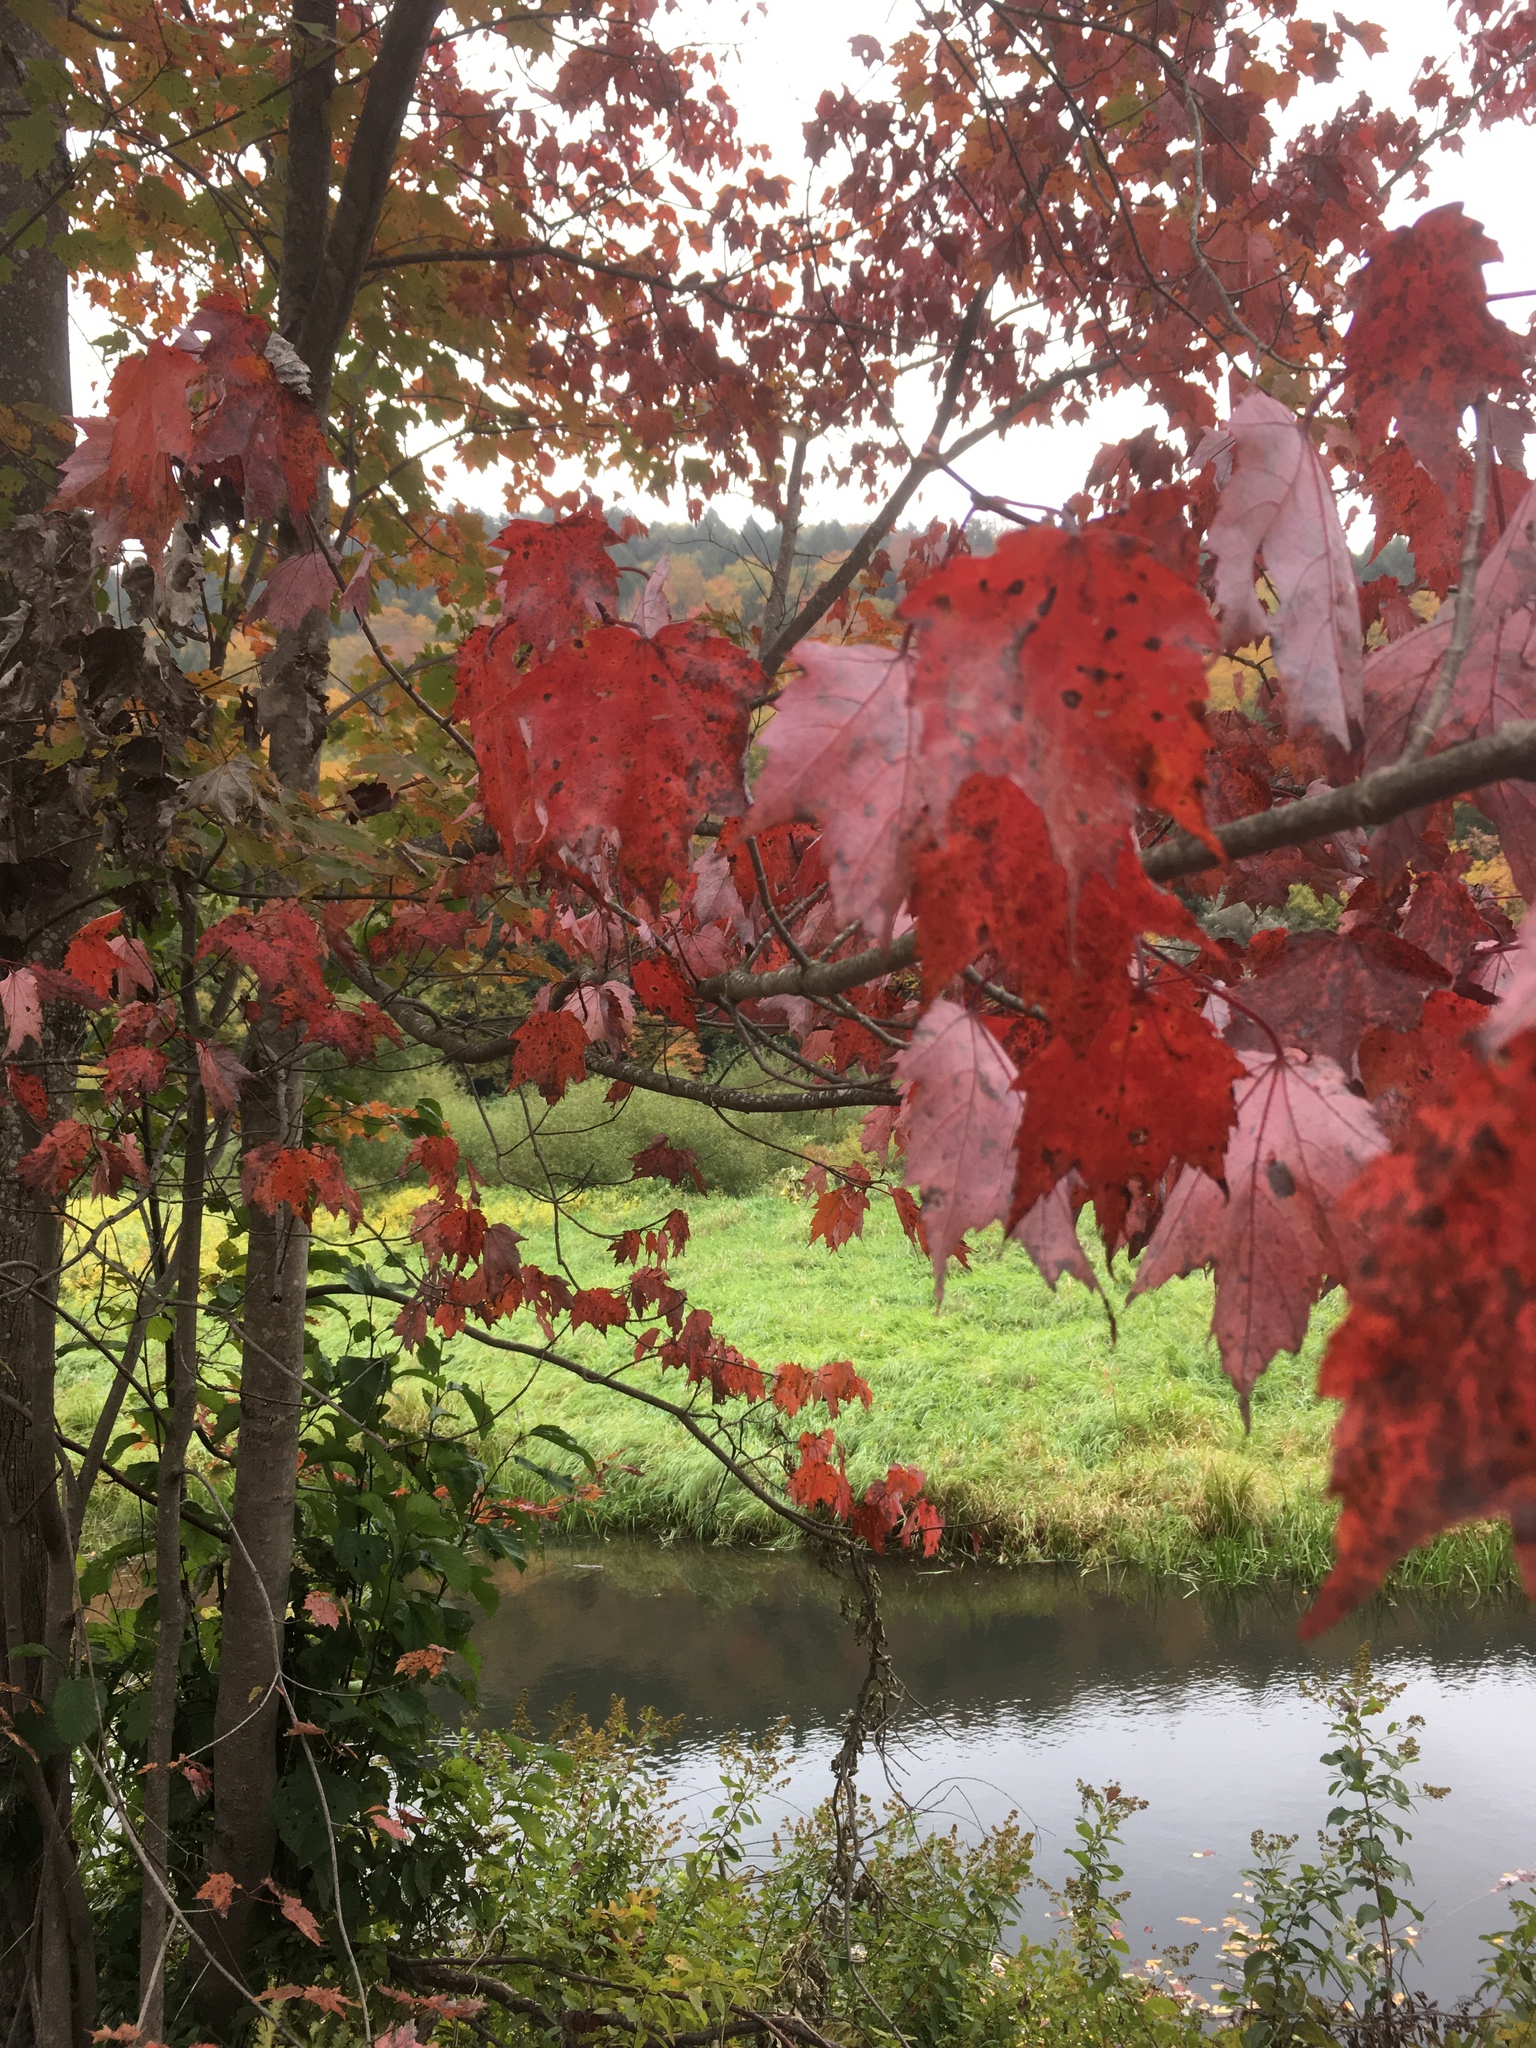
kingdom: Plantae
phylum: Tracheophyta
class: Magnoliopsida
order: Sapindales
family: Sapindaceae
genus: Acer
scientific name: Acer rubrum
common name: Red maple
